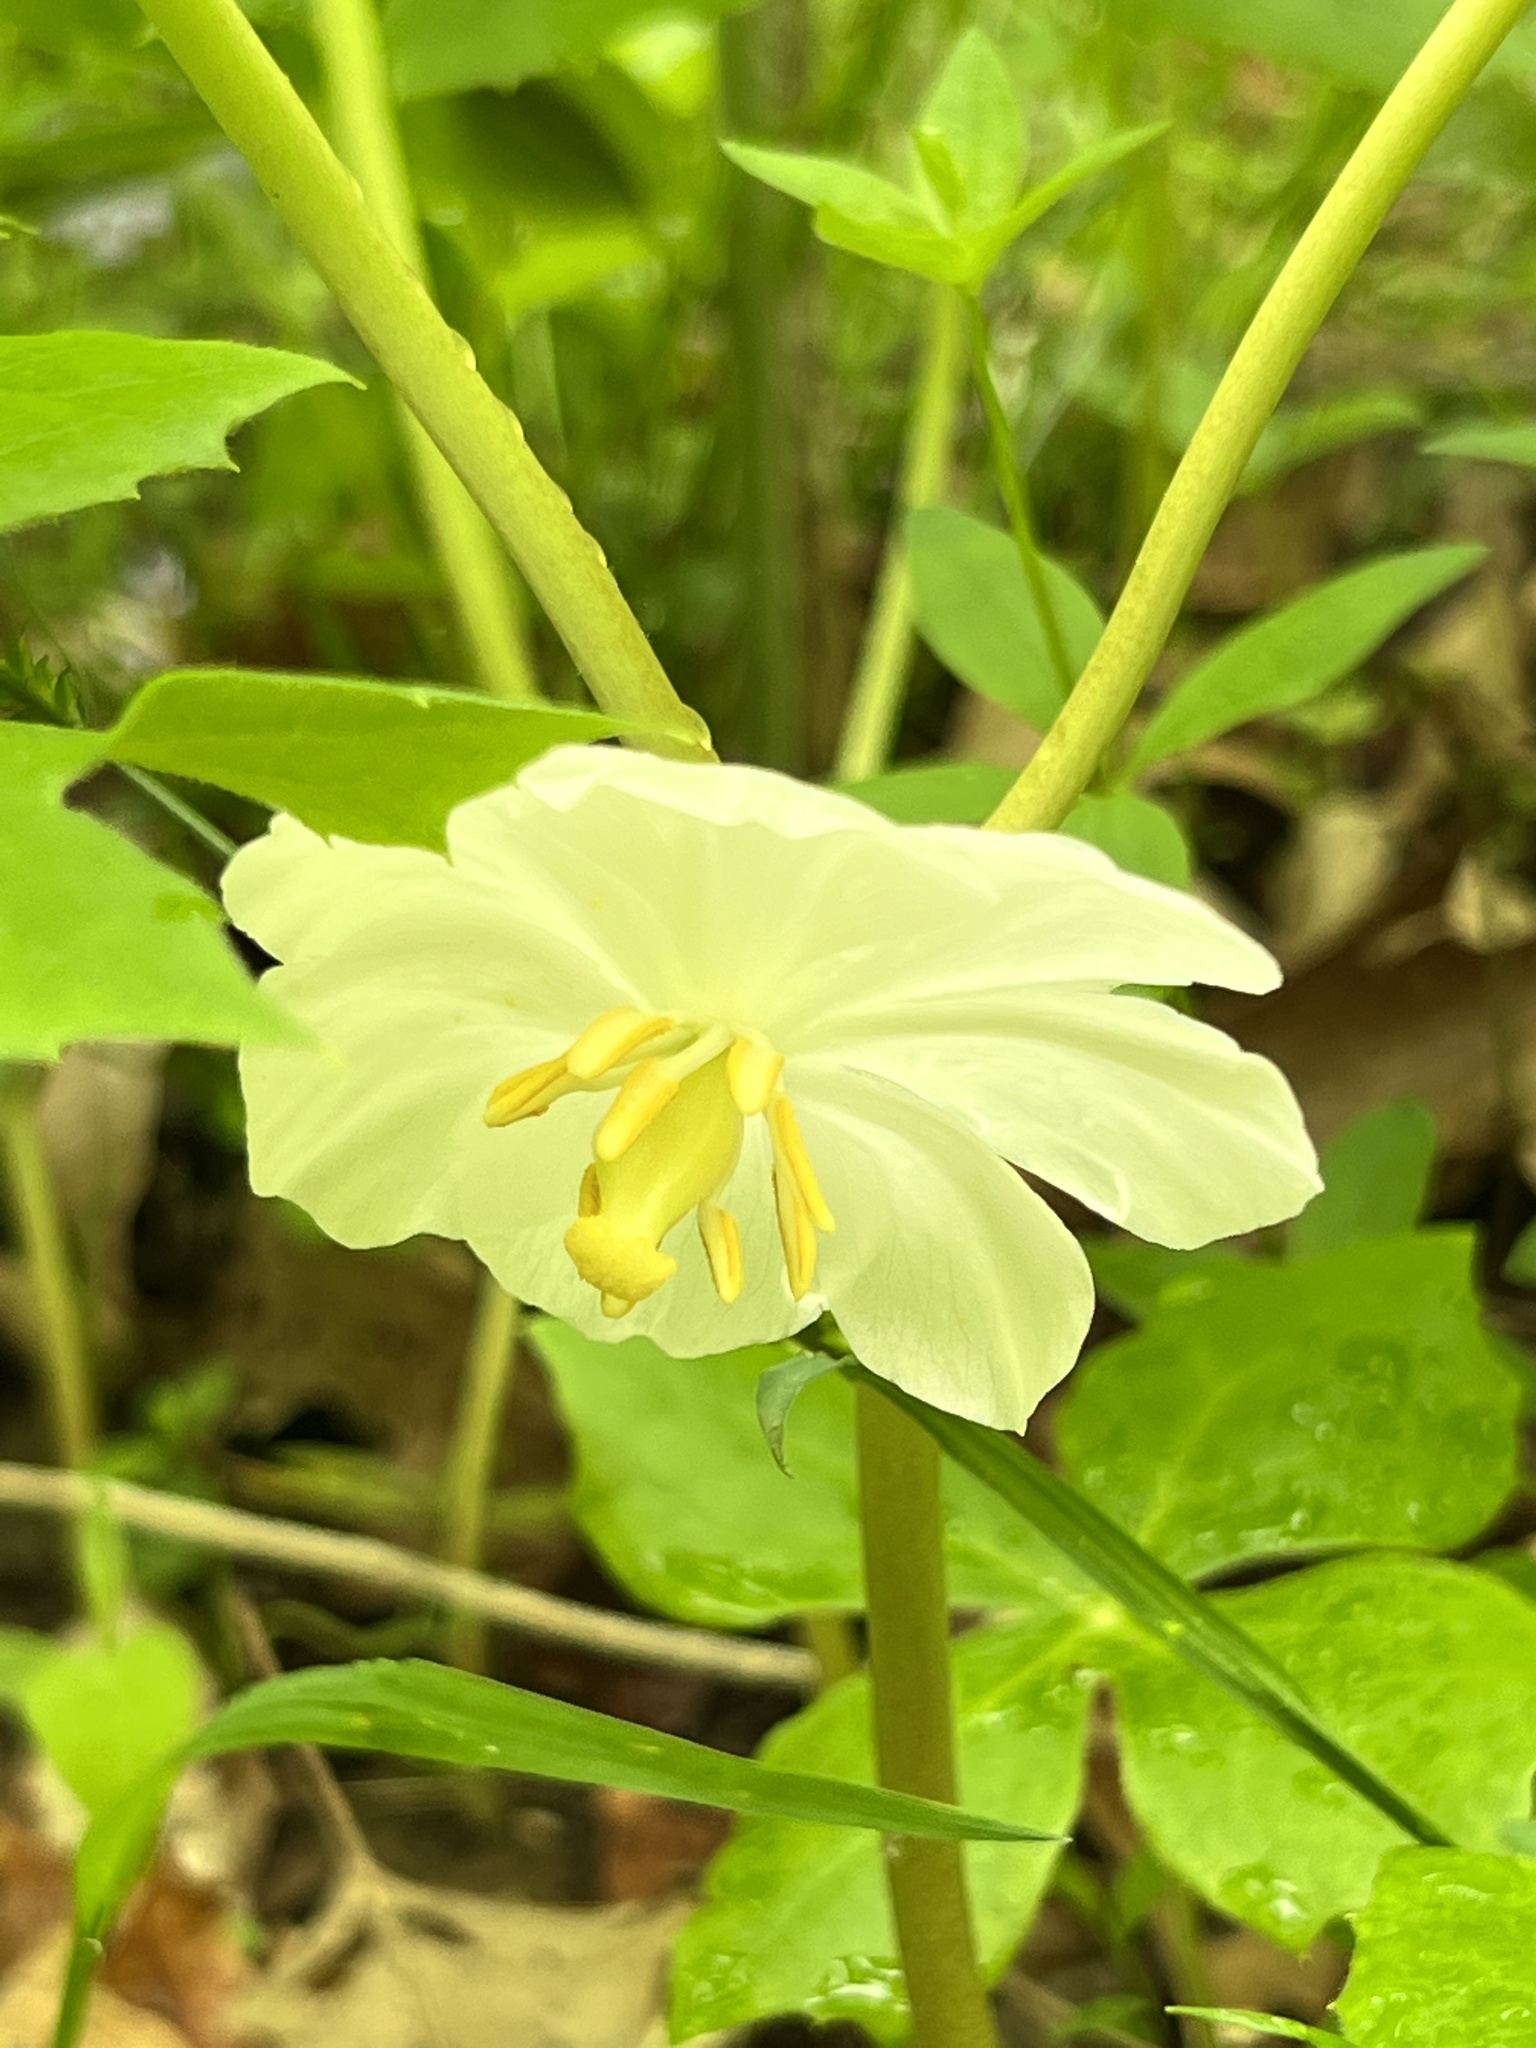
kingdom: Plantae
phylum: Tracheophyta
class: Magnoliopsida
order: Ranunculales
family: Berberidaceae
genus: Podophyllum
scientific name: Podophyllum peltatum
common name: Wild mandrake
